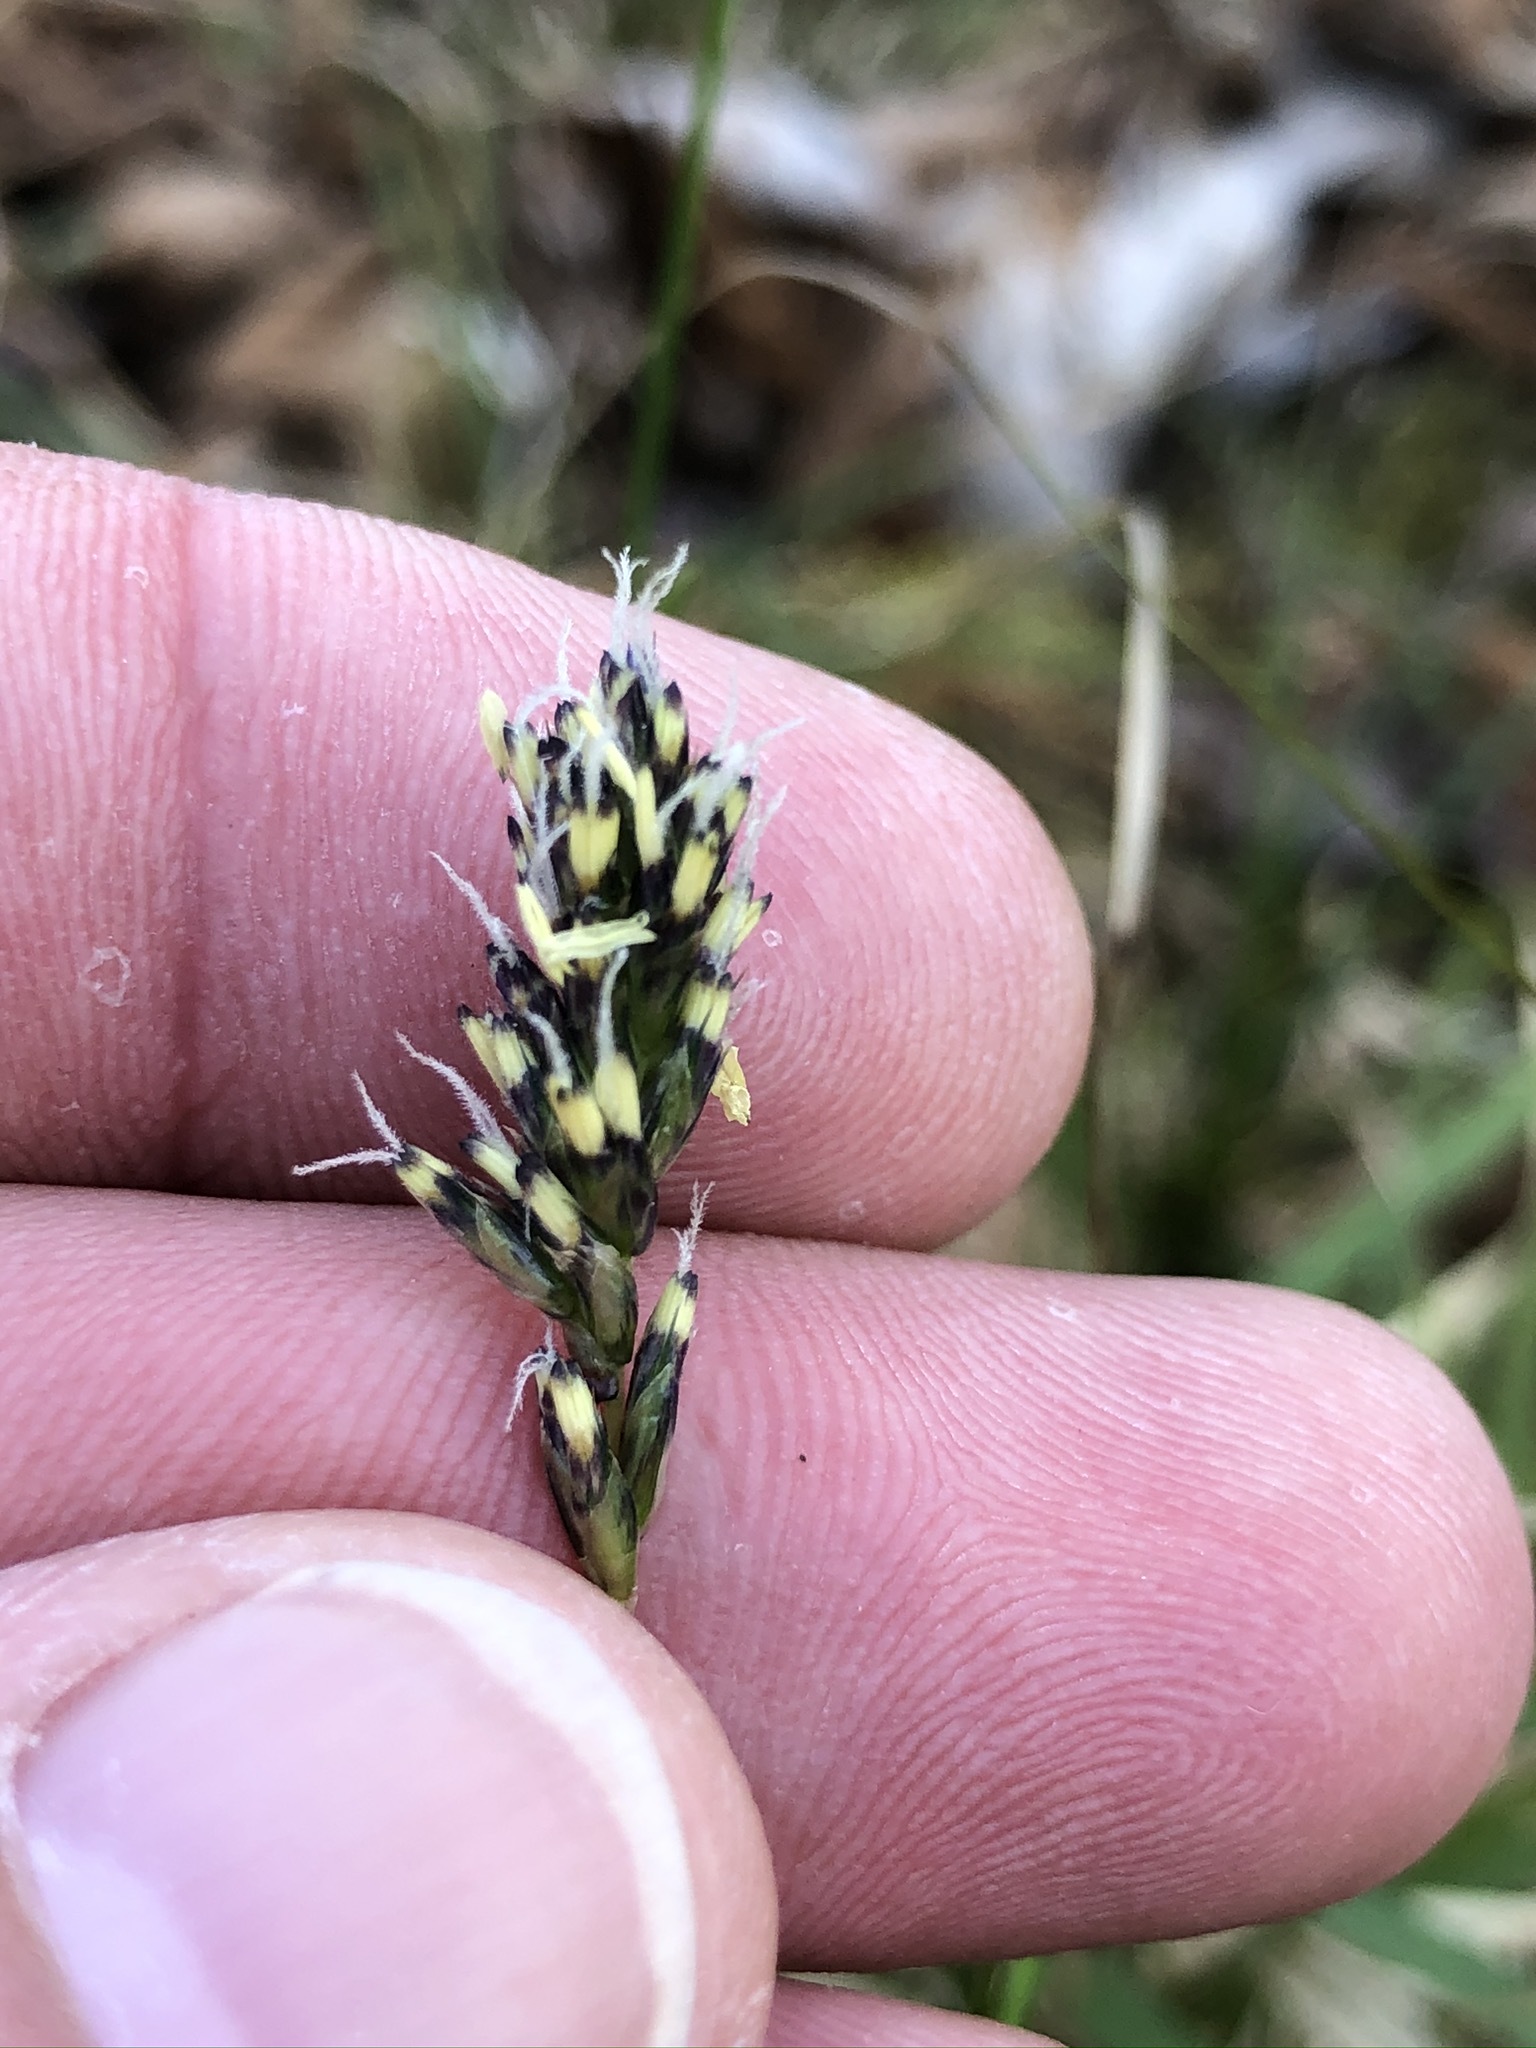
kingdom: Plantae
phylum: Tracheophyta
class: Liliopsida
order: Poales
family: Poaceae
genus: Sesleria
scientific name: Sesleria caerulea
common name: Blue moor-grass
